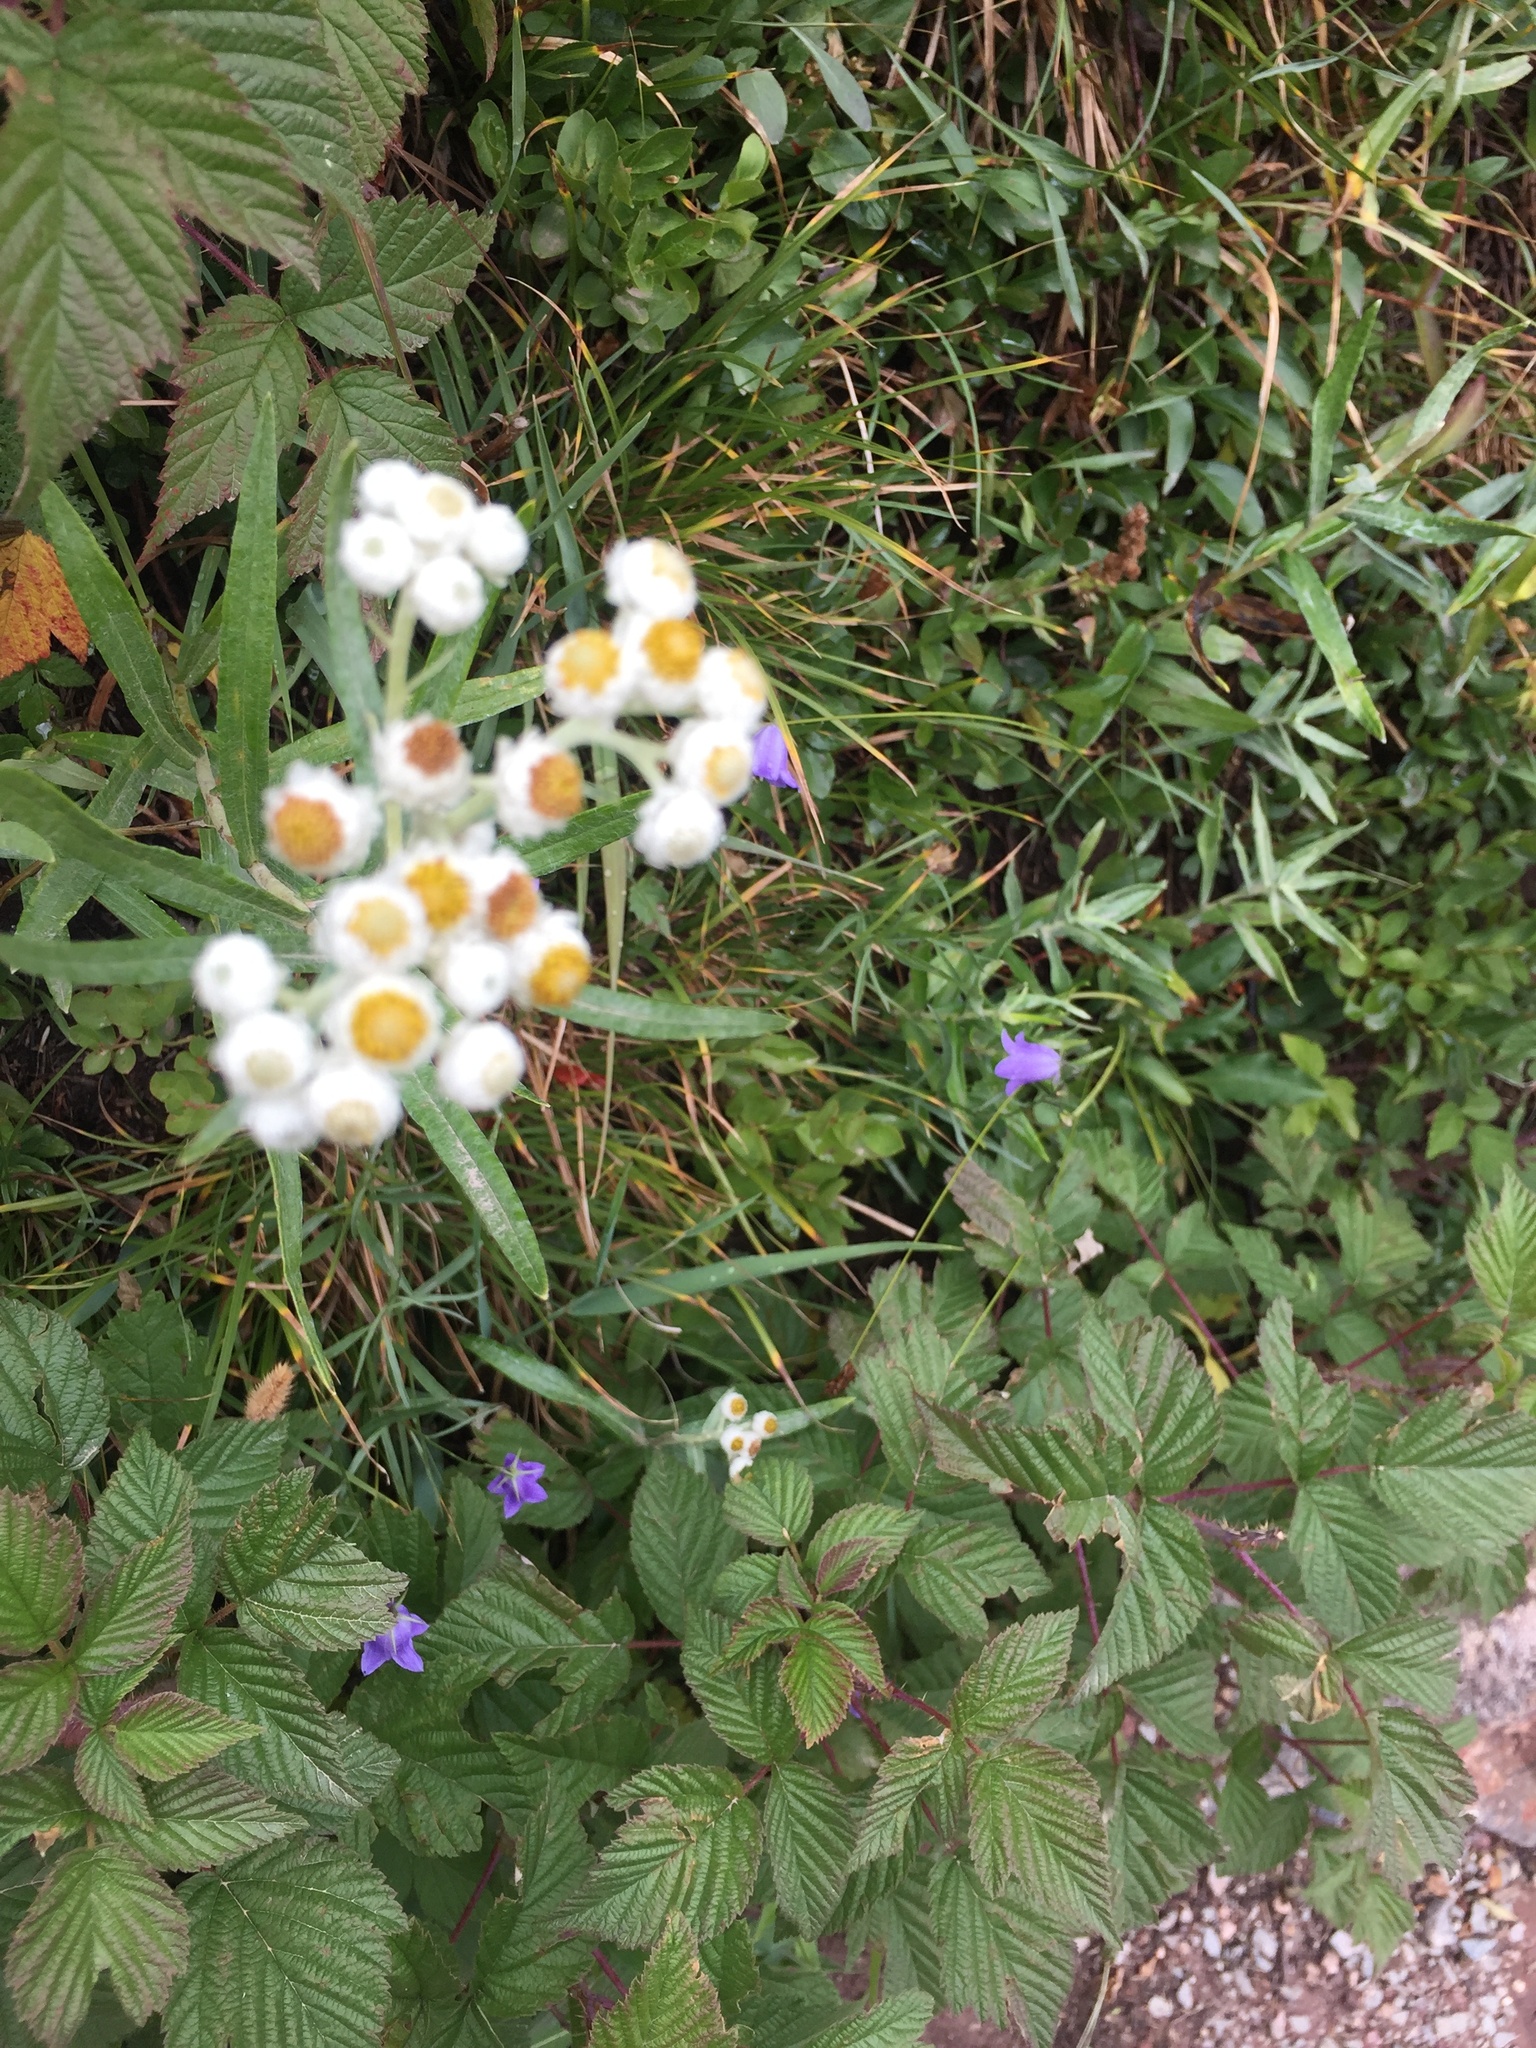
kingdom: Plantae
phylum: Tracheophyta
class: Magnoliopsida
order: Asterales
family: Asteraceae
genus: Anaphalis
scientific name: Anaphalis margaritacea
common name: Pearly everlasting
